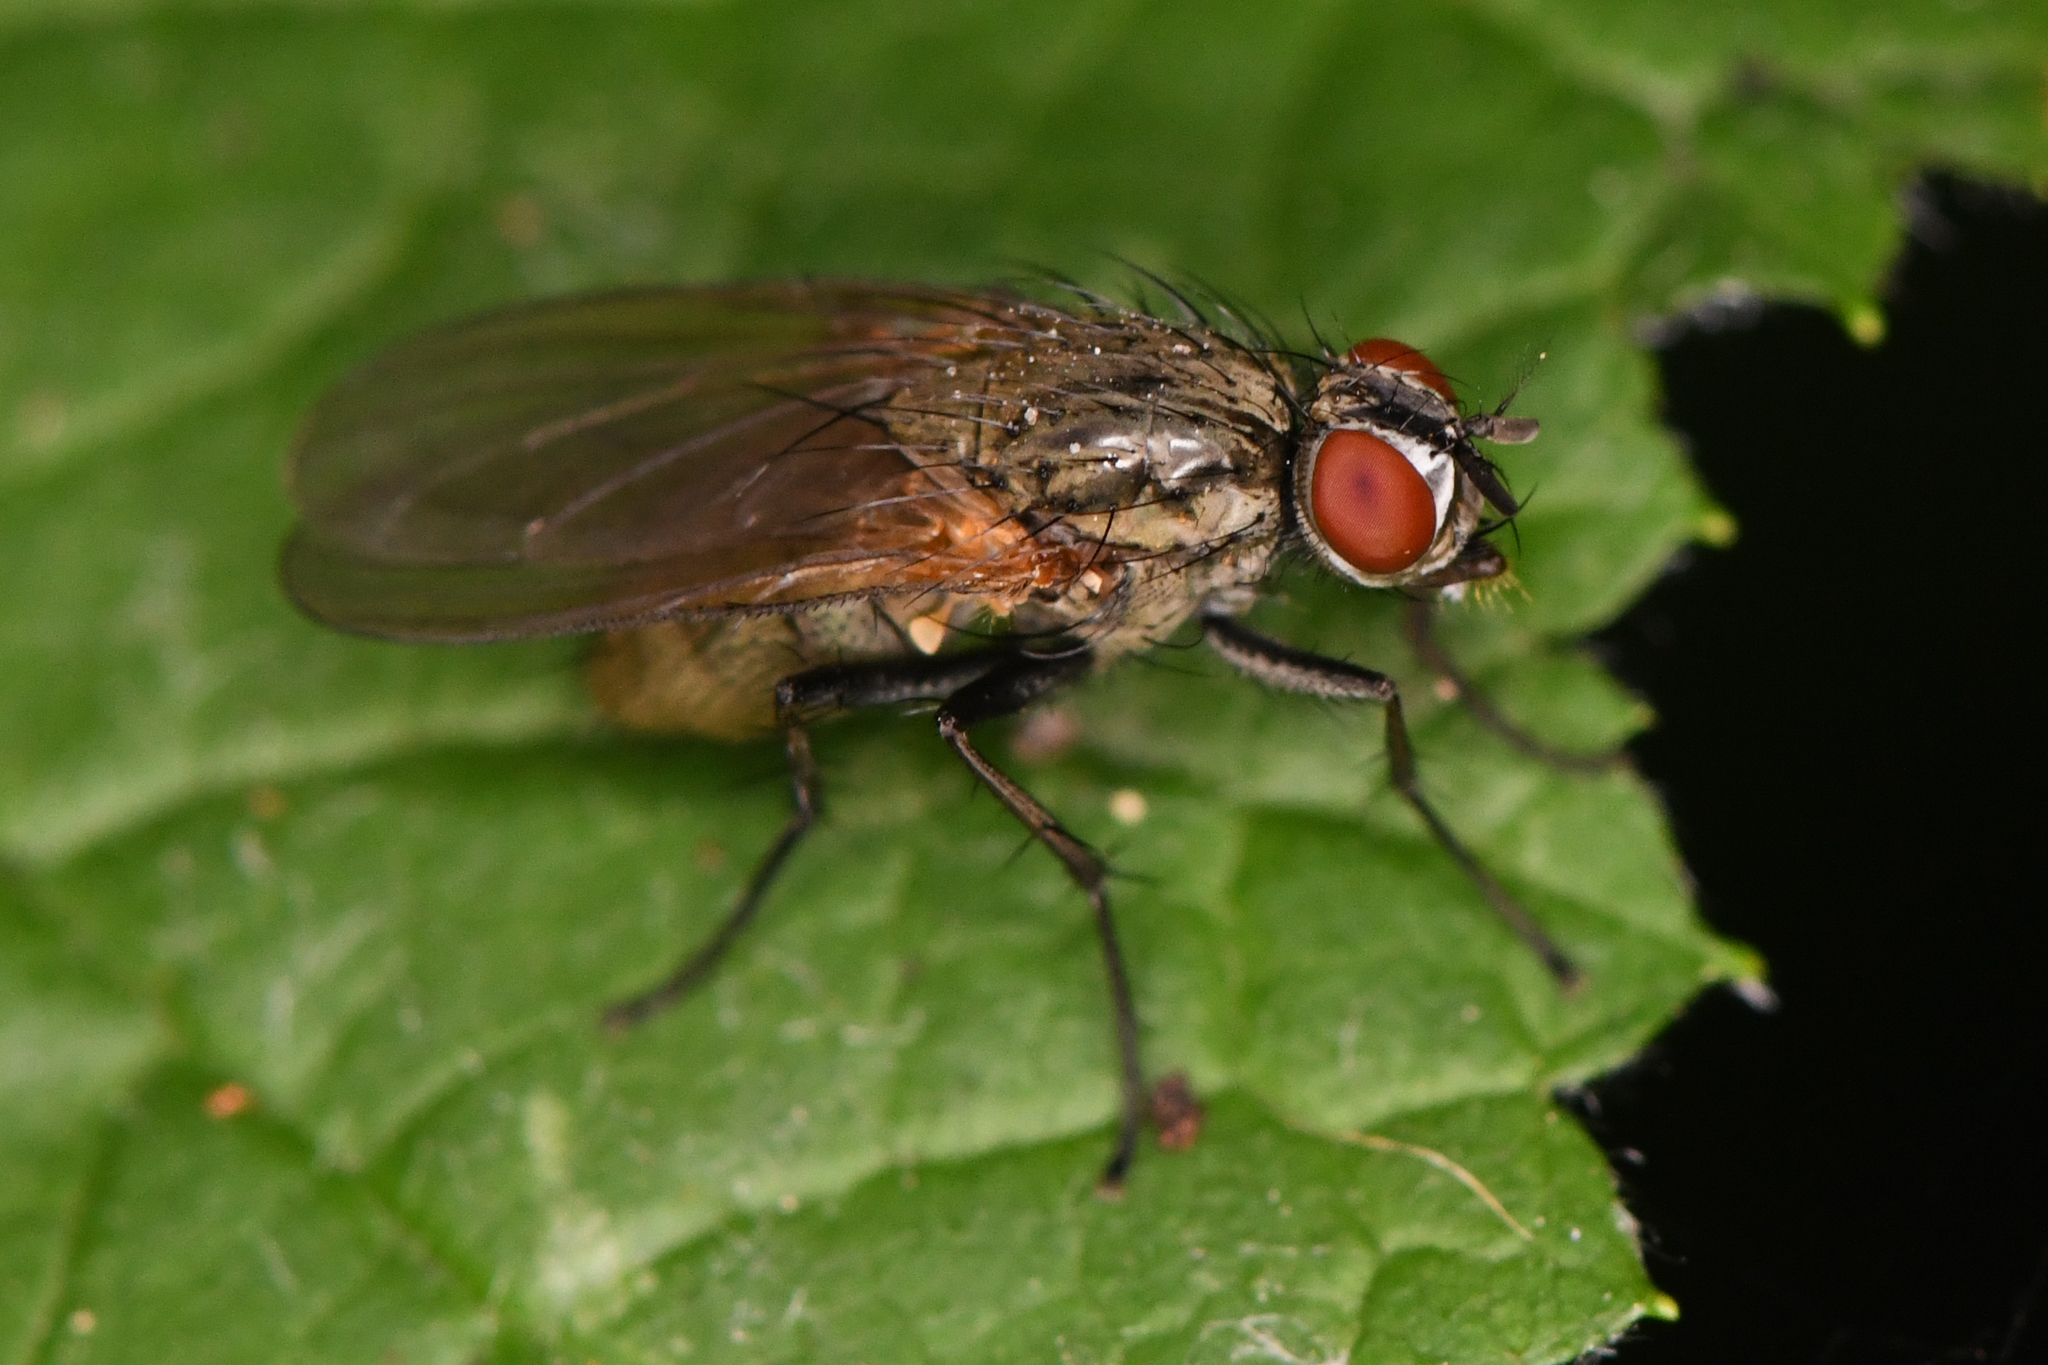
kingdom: Animalia
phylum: Arthropoda
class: Insecta
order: Diptera
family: Anthomyiidae
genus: Hydrophoria
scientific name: Hydrophoria lancifer
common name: Root-maggot fly
